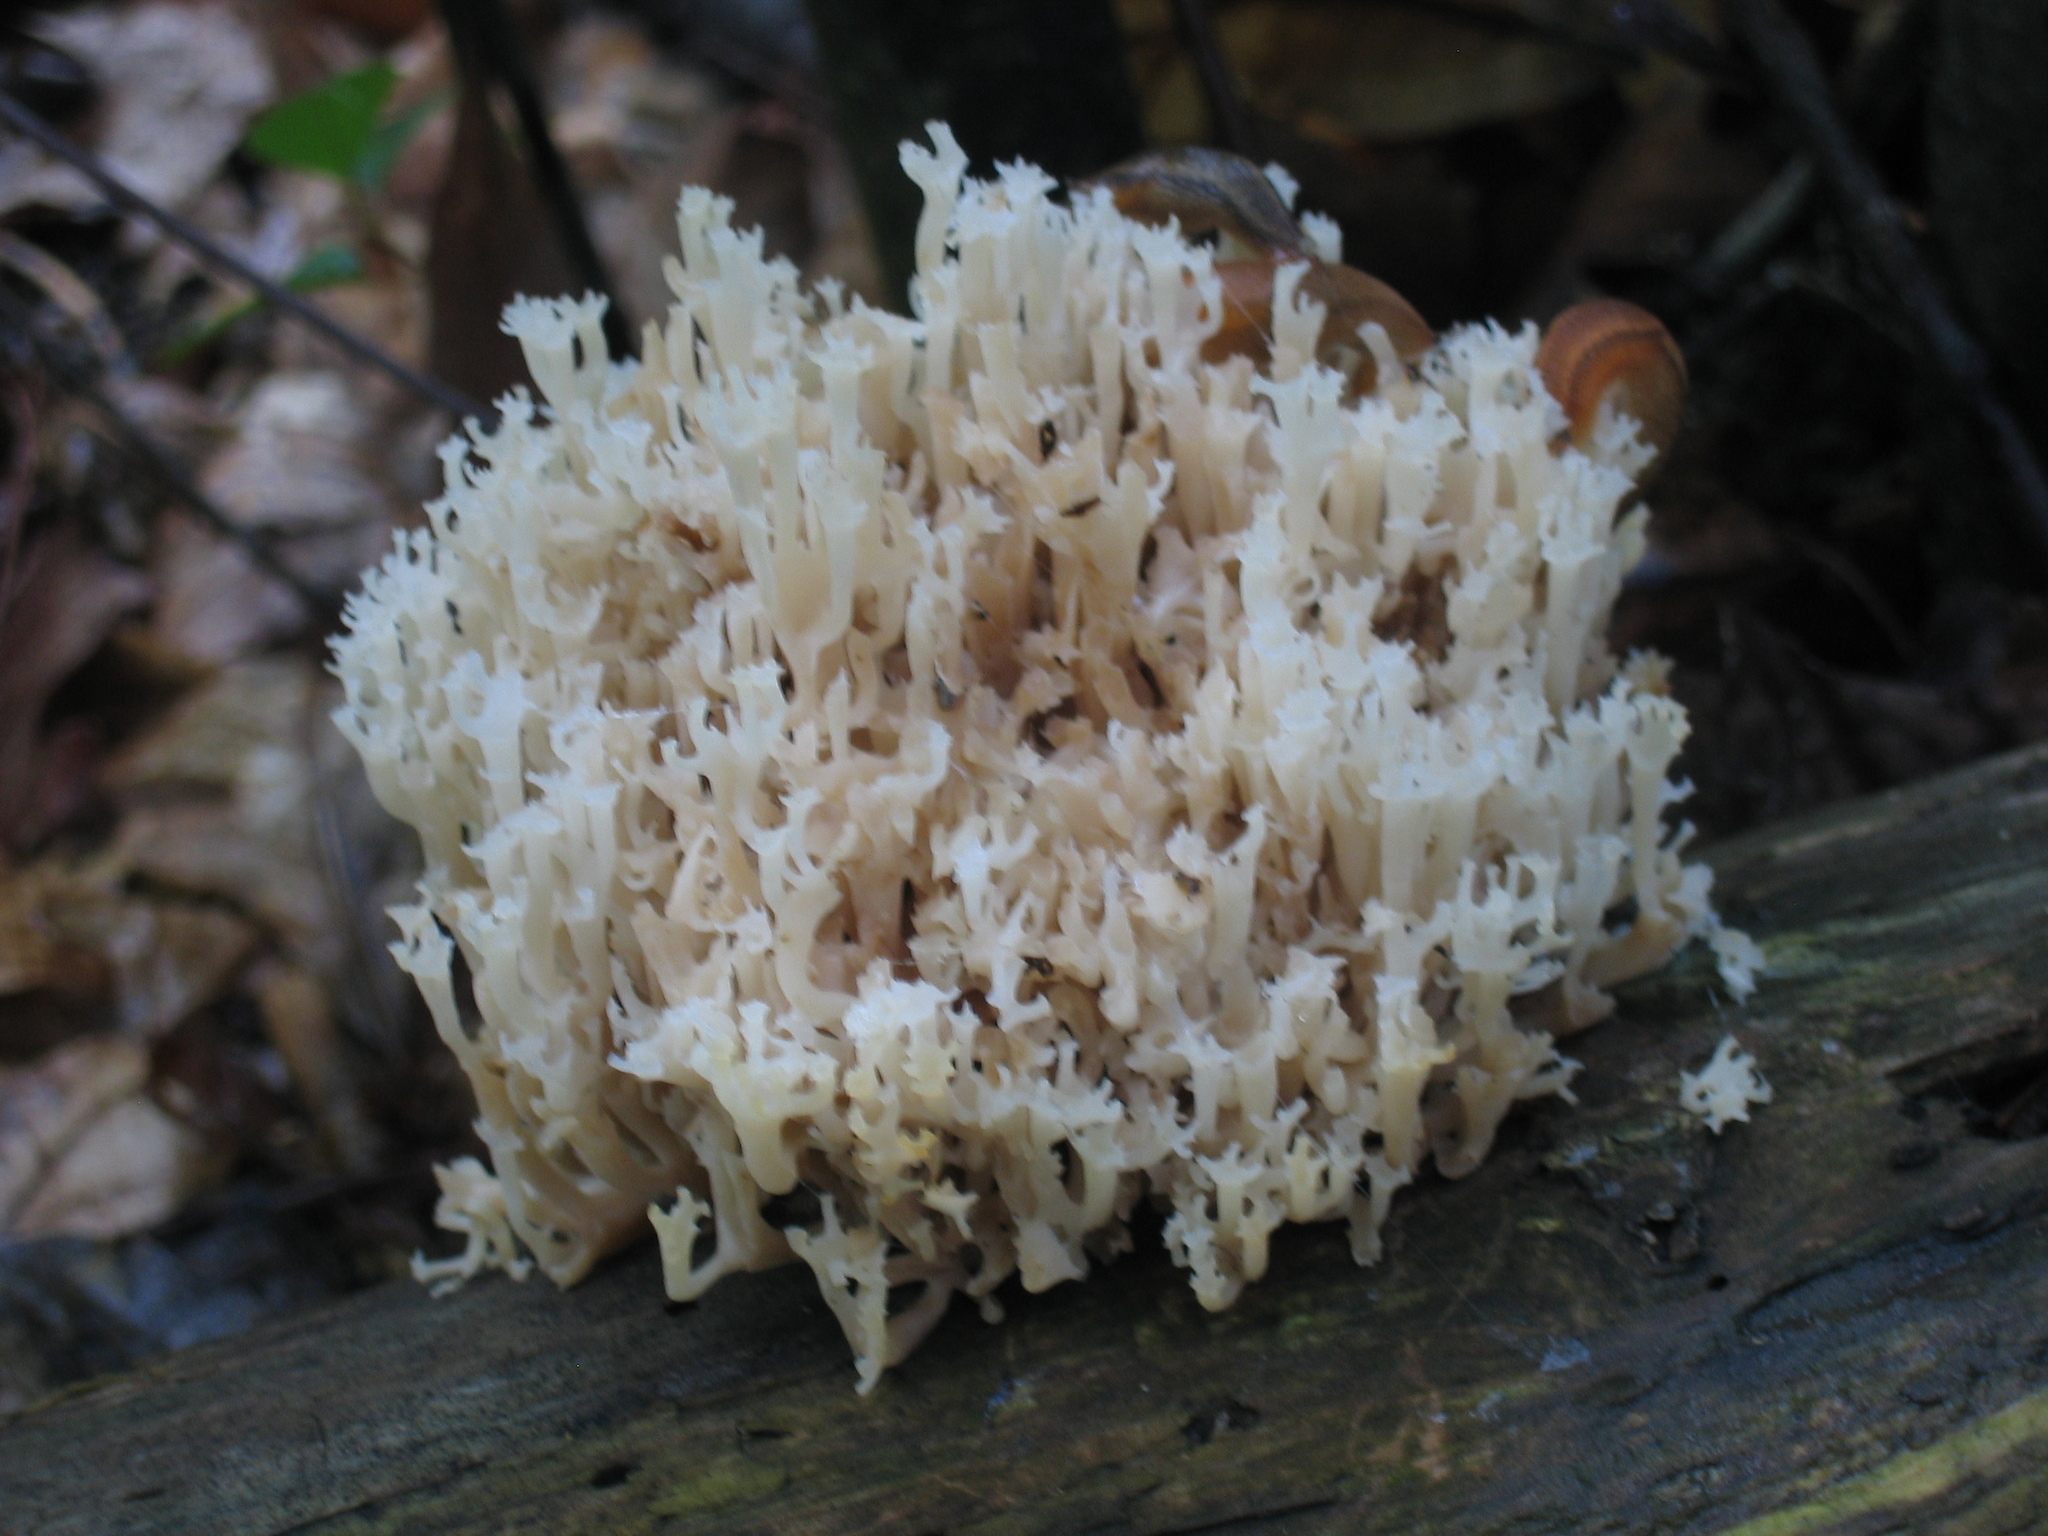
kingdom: Fungi
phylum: Basidiomycota
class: Agaricomycetes
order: Russulales
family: Auriscalpiaceae
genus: Artomyces
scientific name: Artomyces pyxidatus
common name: Crown-tipped coral fungus
